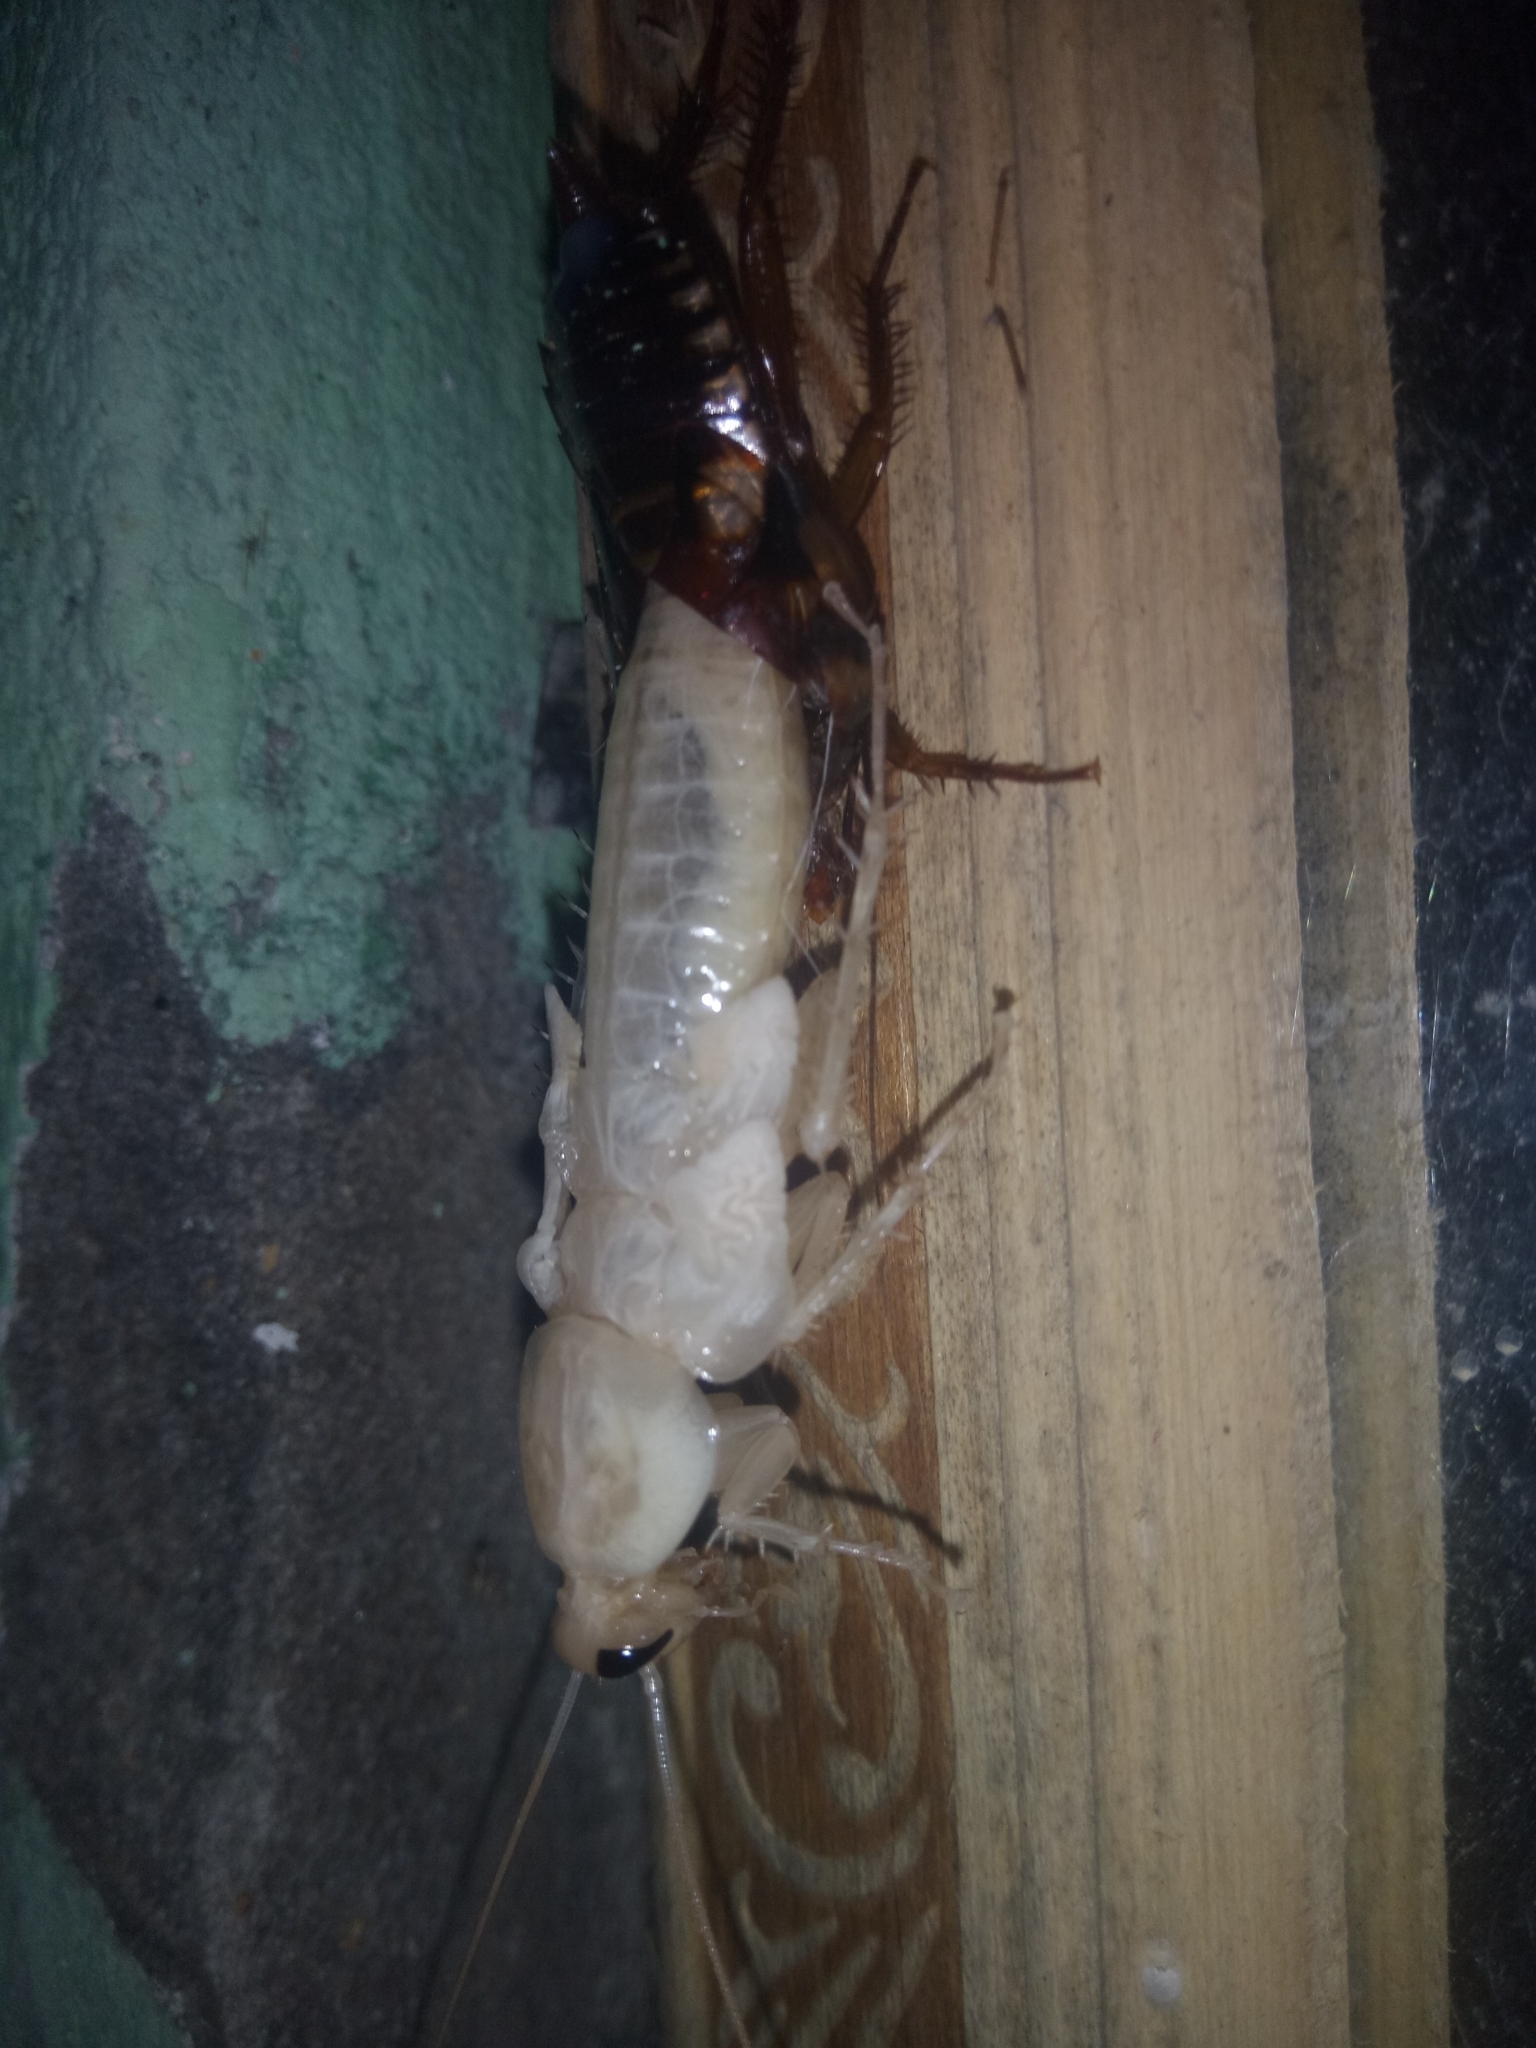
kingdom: Animalia
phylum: Arthropoda
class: Insecta
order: Blattodea
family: Blattidae
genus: Periplaneta
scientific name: Periplaneta australasiae
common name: Australian cockroach
